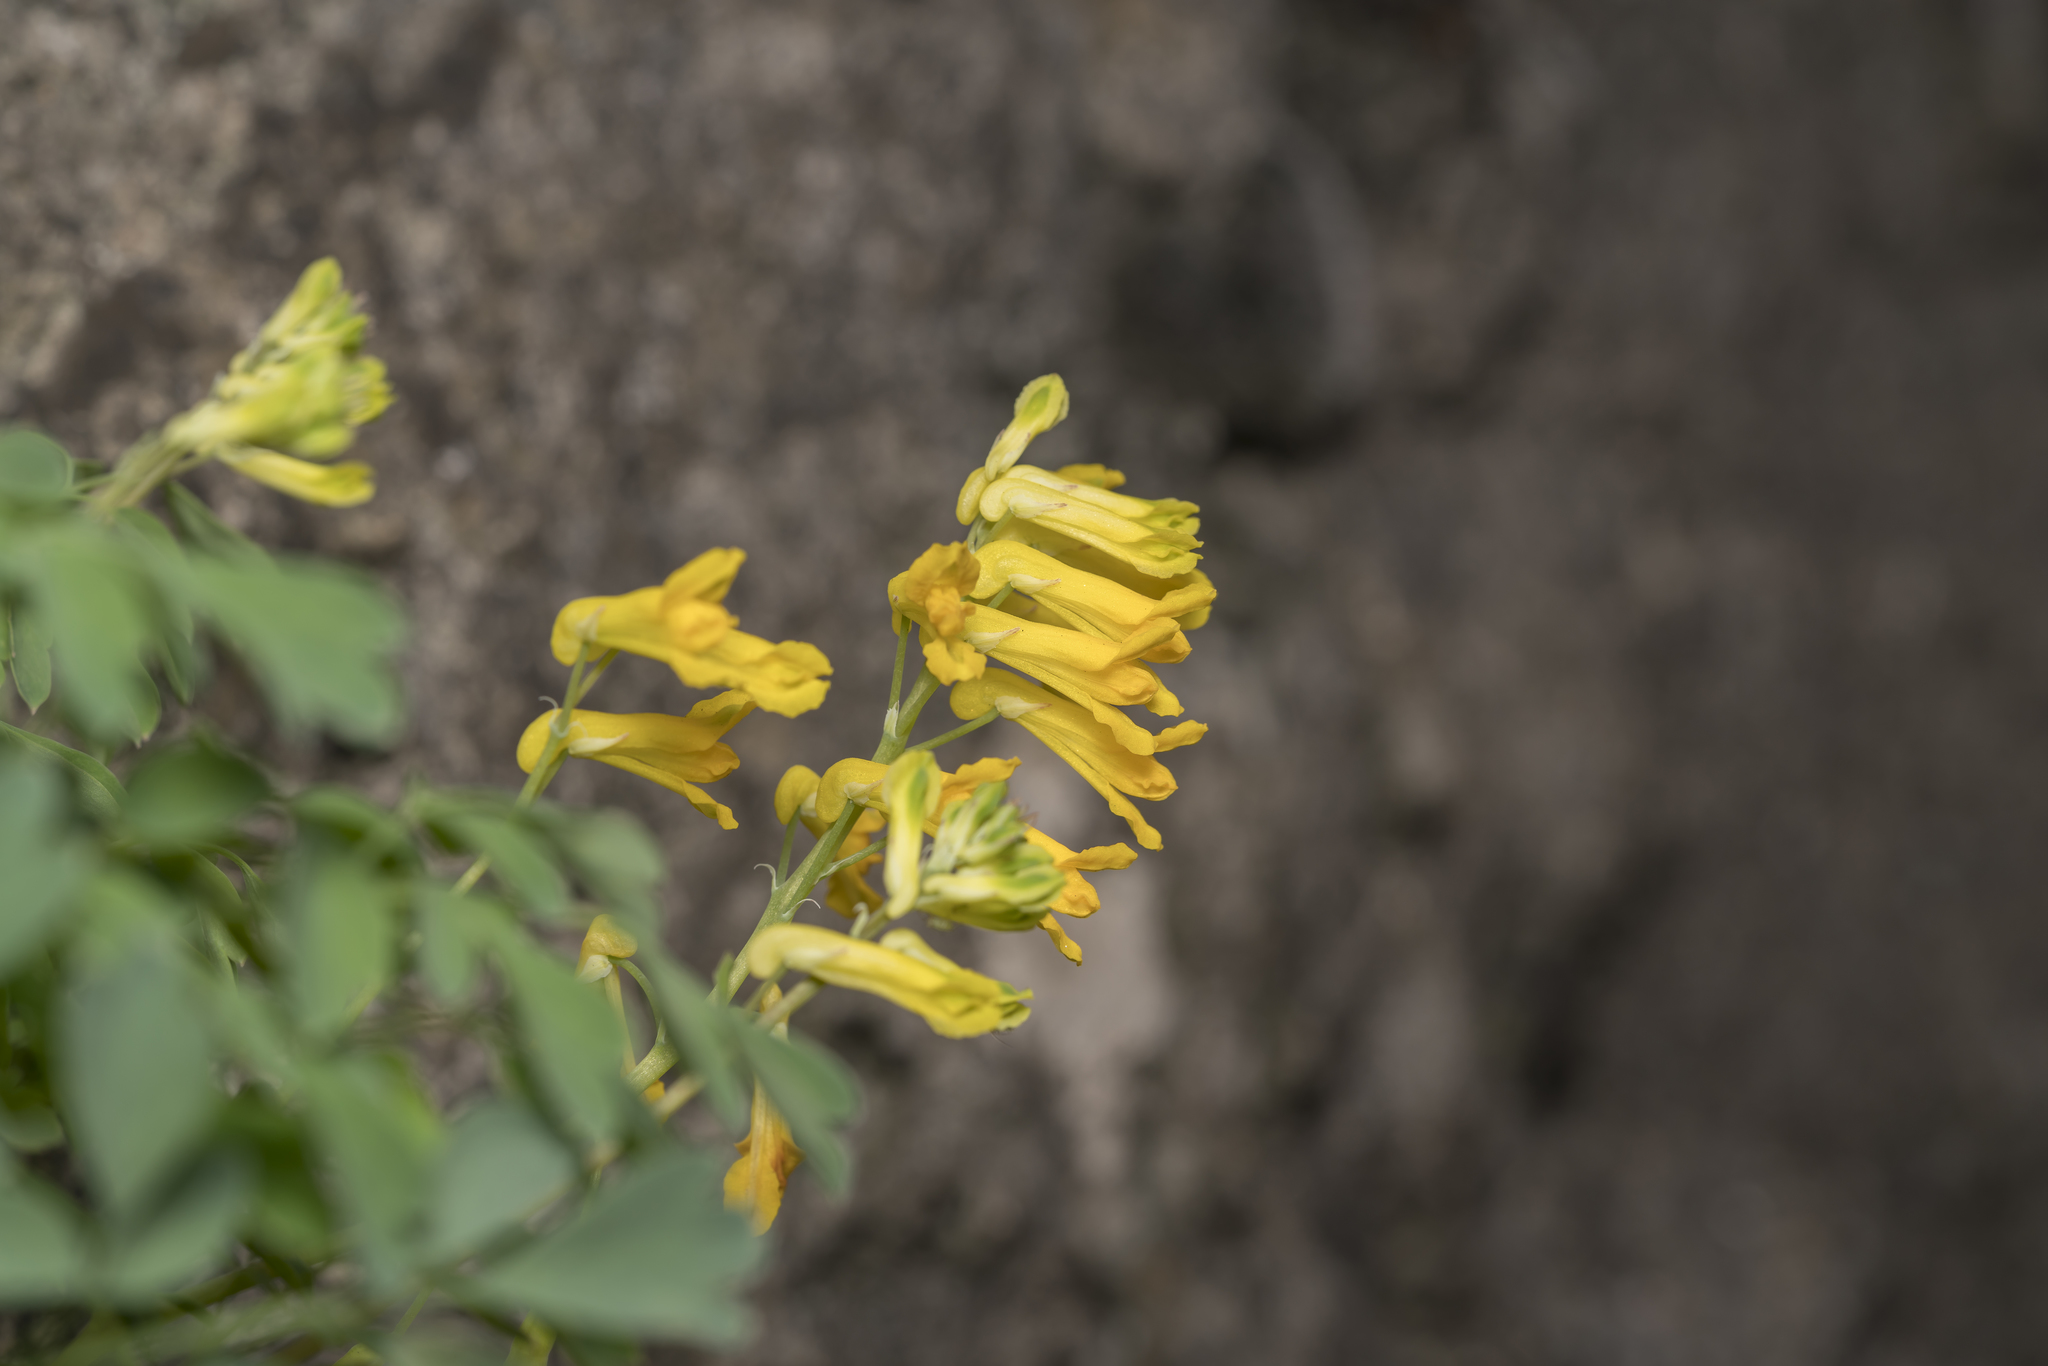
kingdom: Plantae
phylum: Tracheophyta
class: Magnoliopsida
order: Ranunculales
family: Papaveraceae
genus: Pseudofumaria
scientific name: Pseudofumaria lutea
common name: Yellow corydalis
